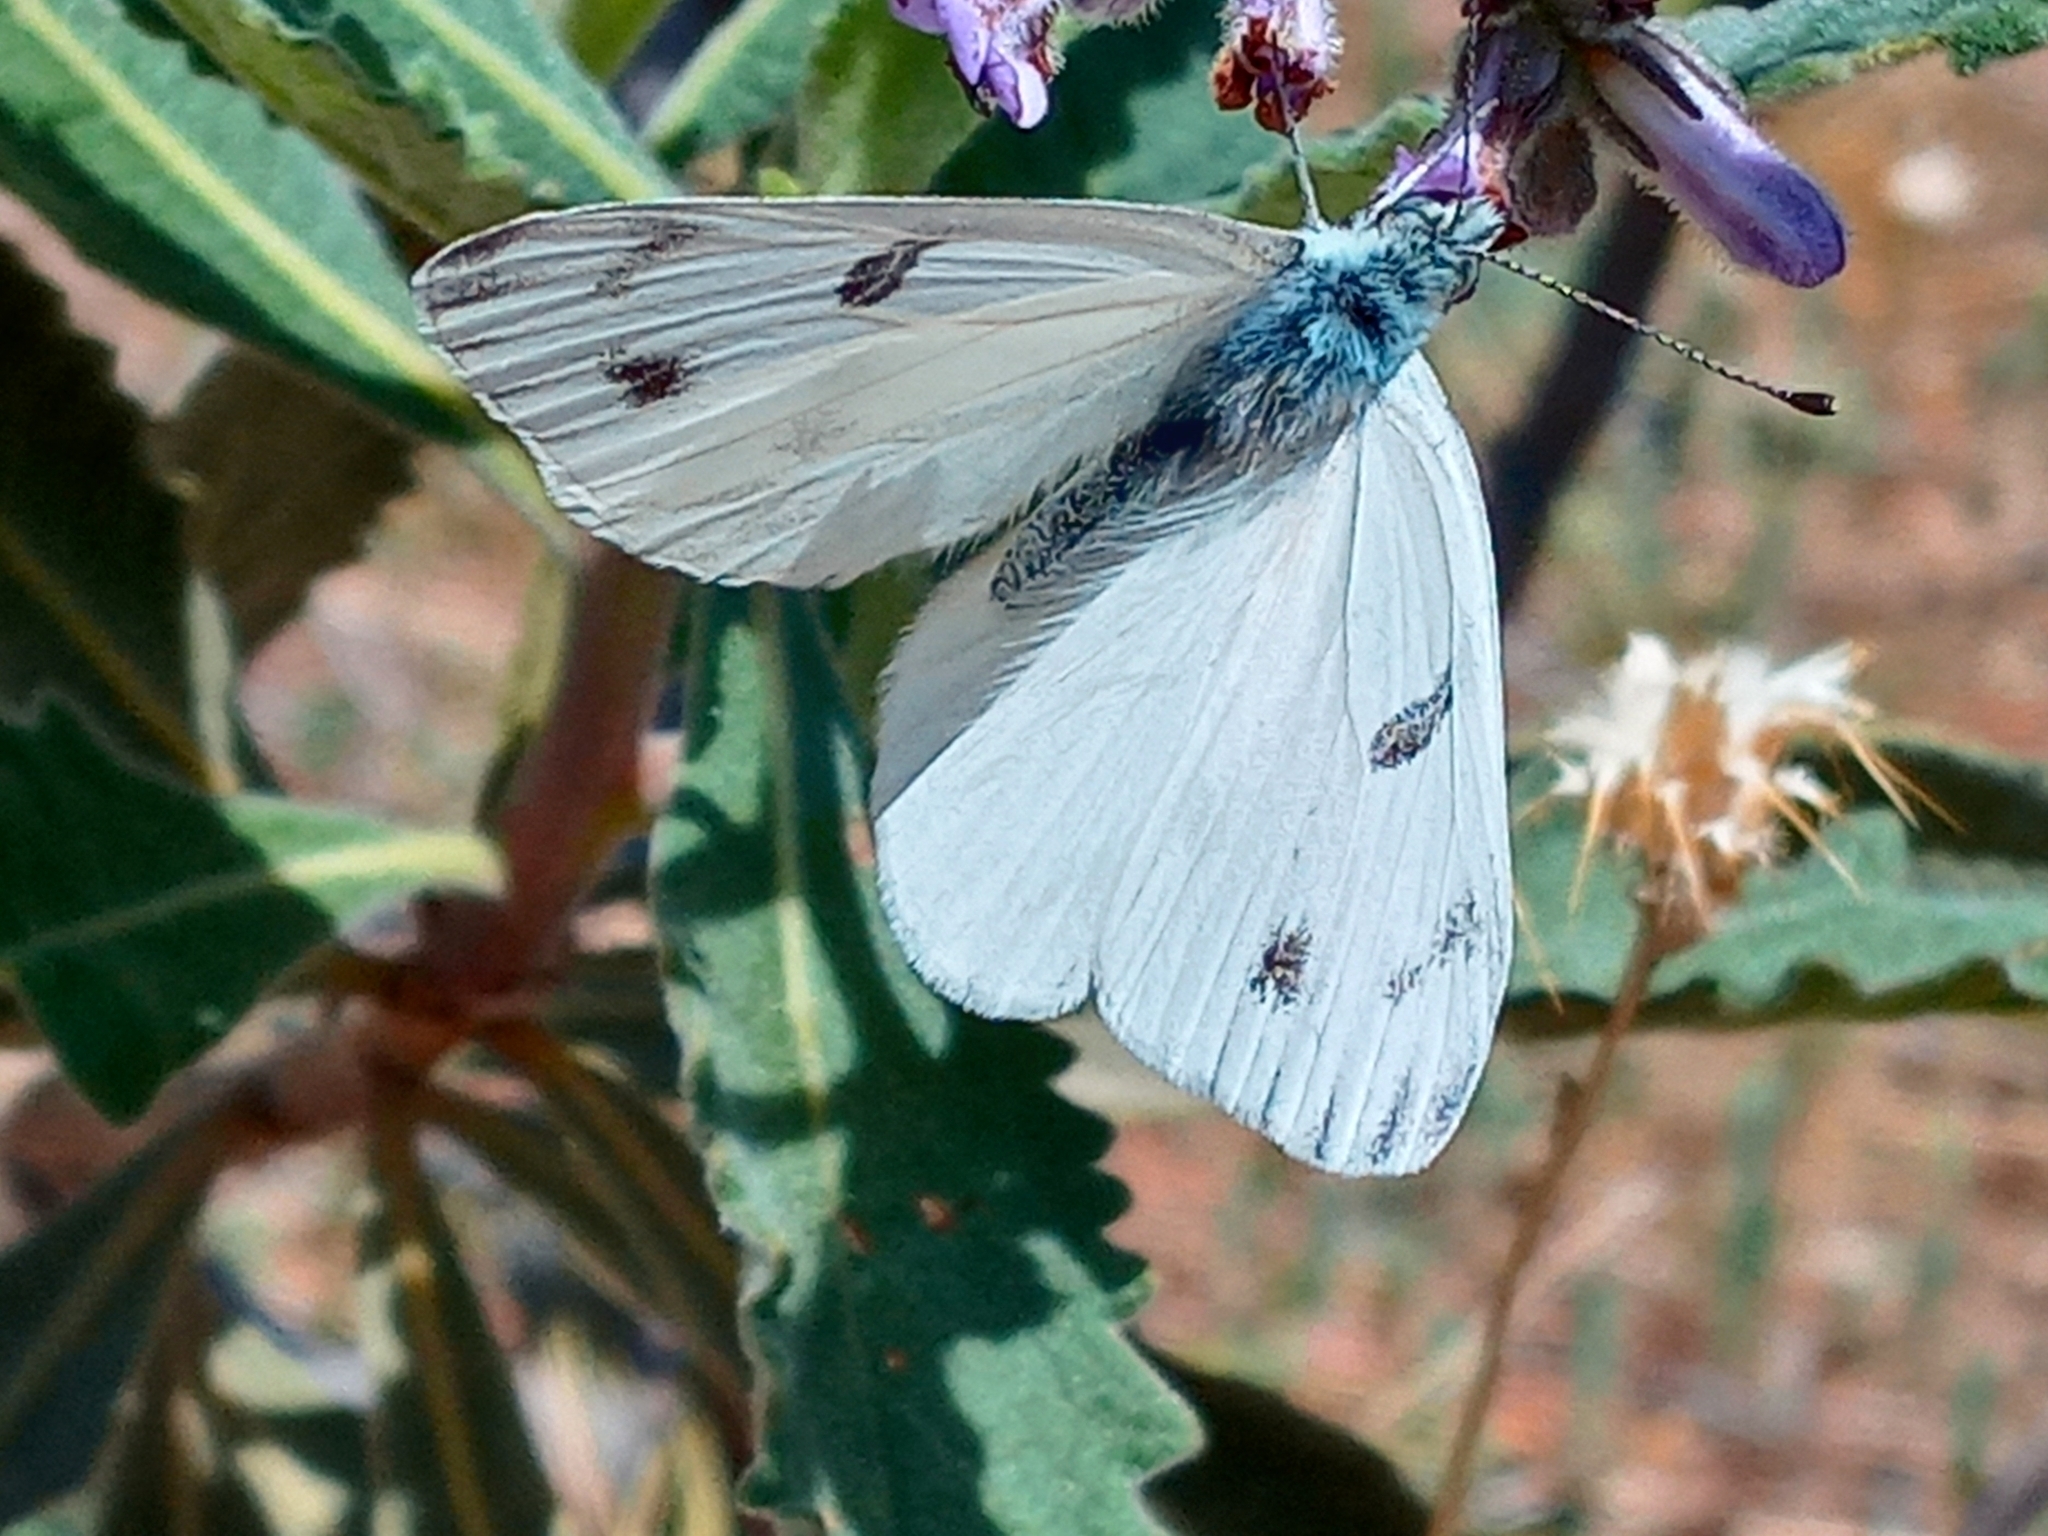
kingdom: Animalia
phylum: Arthropoda
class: Insecta
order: Lepidoptera
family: Pieridae
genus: Pontia
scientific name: Pontia protodice
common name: Checkered white
